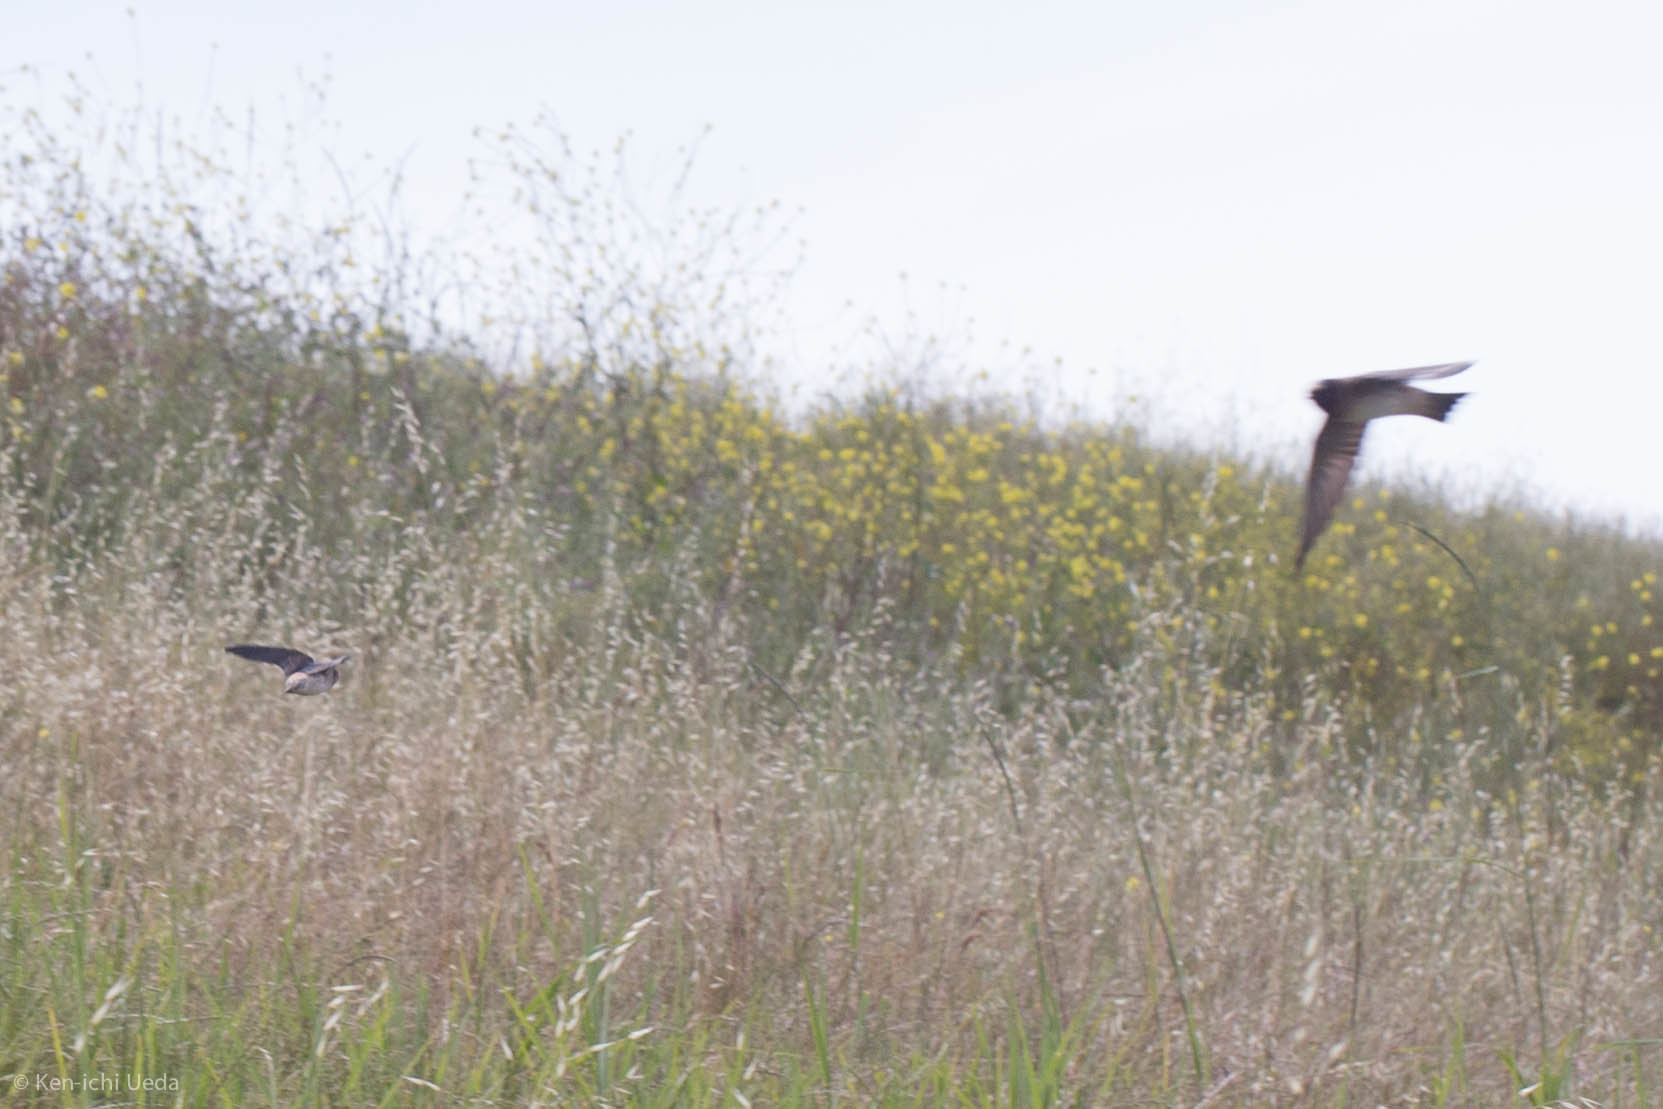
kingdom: Animalia
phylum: Chordata
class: Aves
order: Passeriformes
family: Hirundinidae
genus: Petrochelidon
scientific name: Petrochelidon pyrrhonota
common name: American cliff swallow
